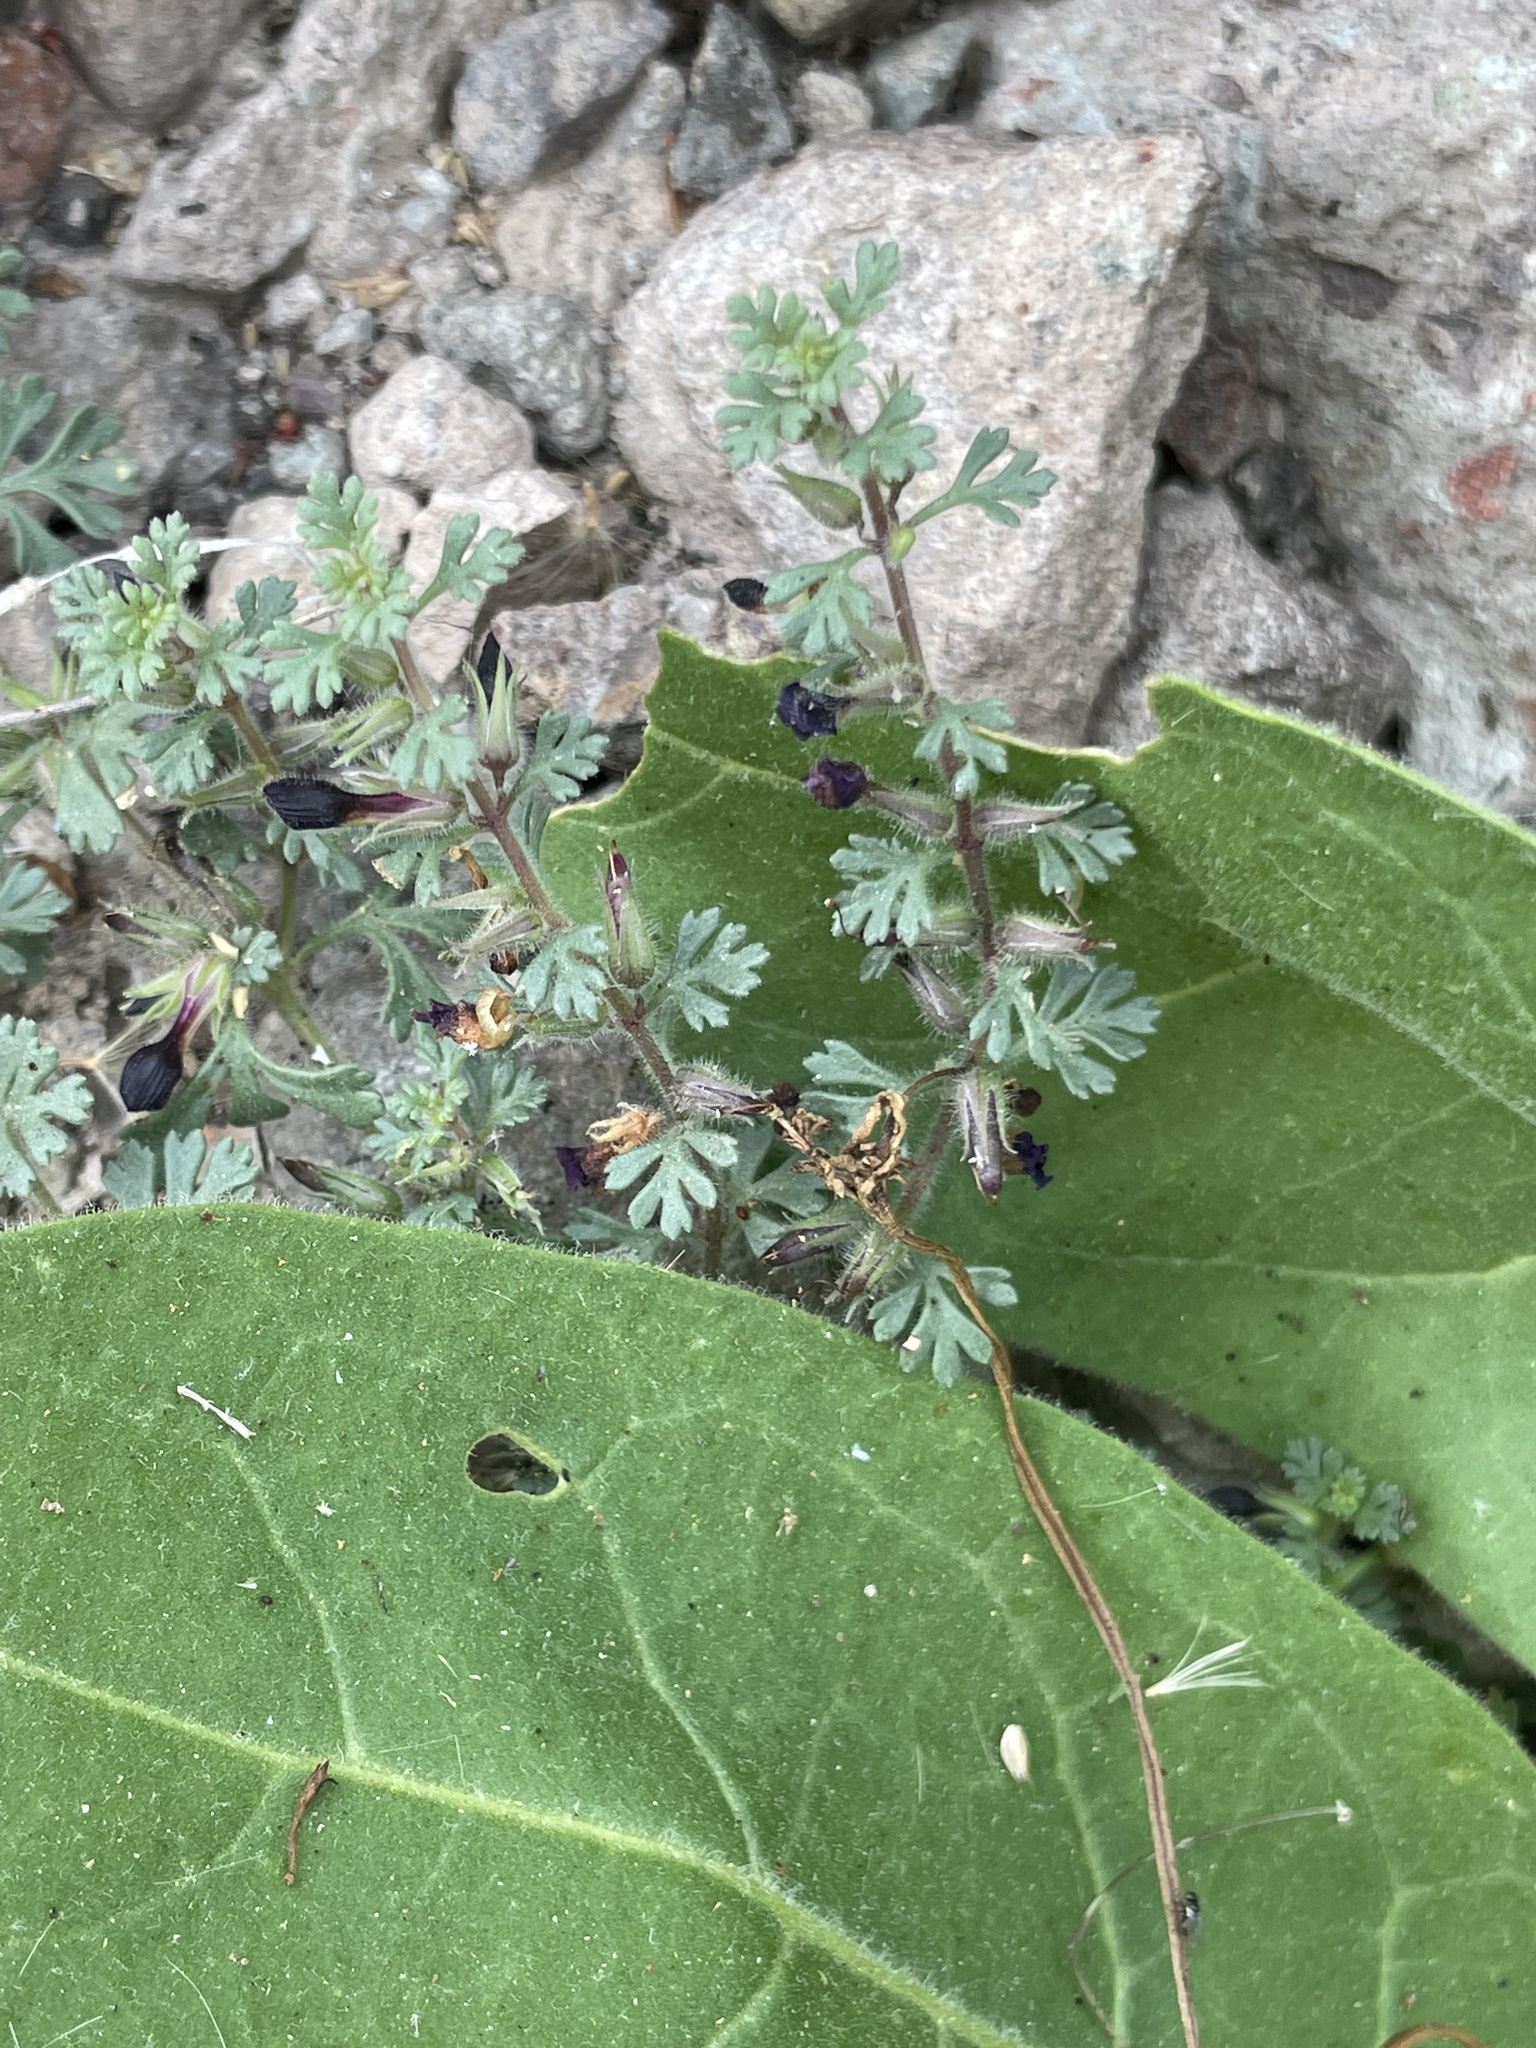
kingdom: Plantae
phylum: Tracheophyta
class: Magnoliopsida
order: Lamiales
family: Plantaginaceae
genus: Schistophragma
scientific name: Schistophragma polystachyum
